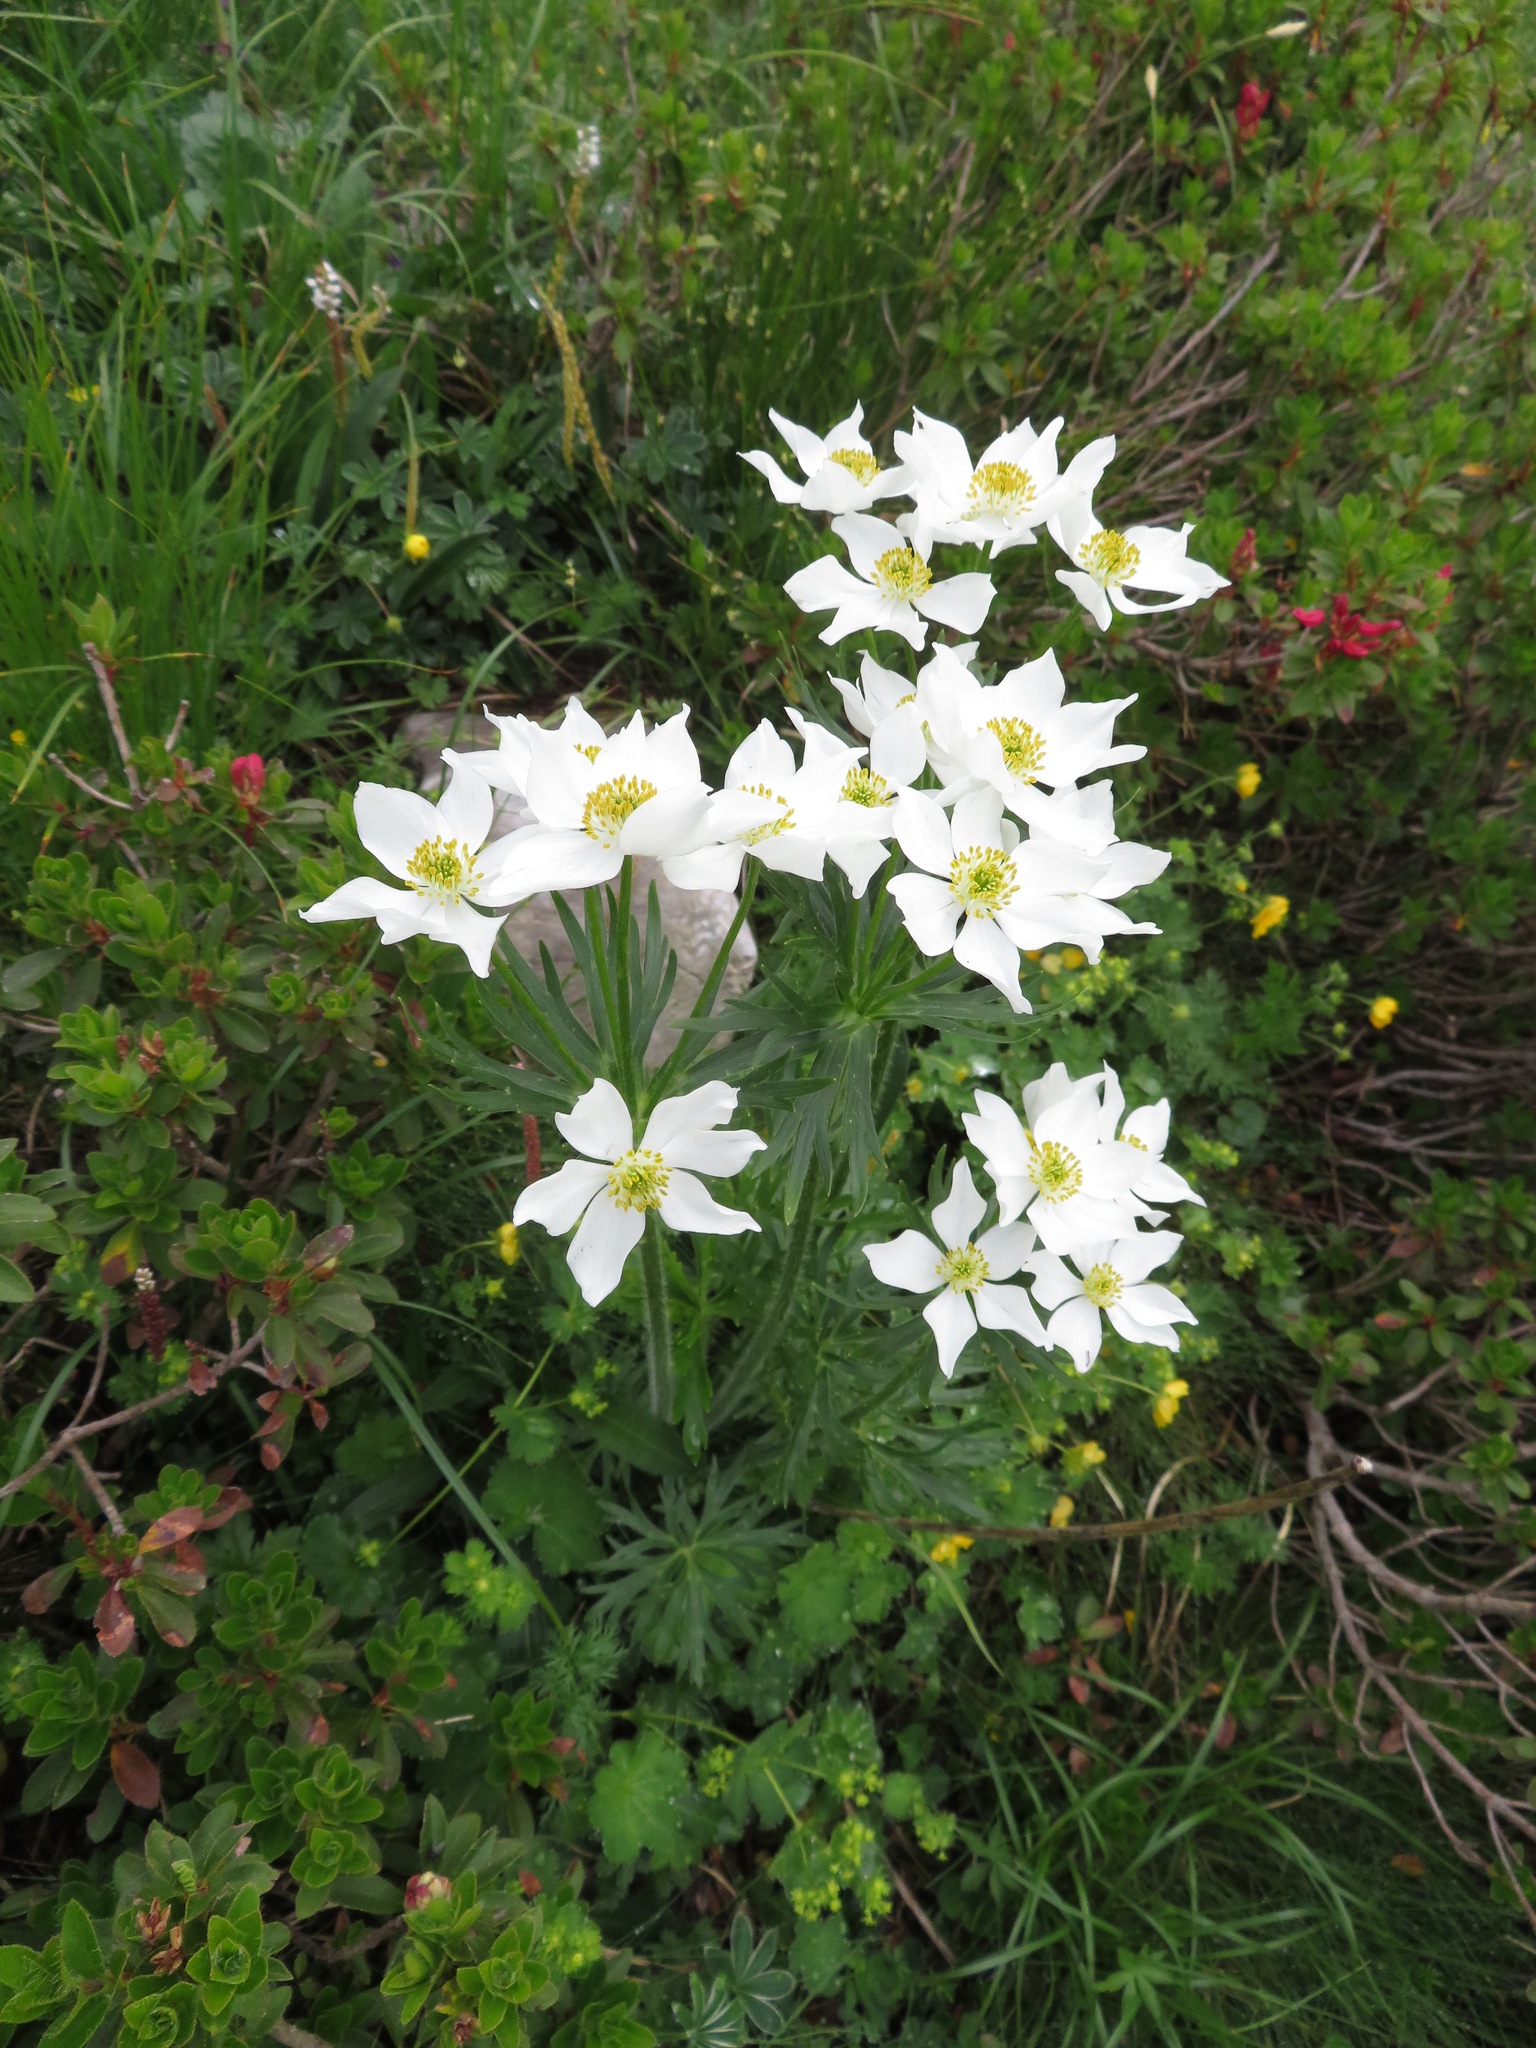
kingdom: Plantae
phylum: Tracheophyta
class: Magnoliopsida
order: Ranunculales
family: Ranunculaceae
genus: Anemonastrum
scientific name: Anemonastrum narcissiflorum
